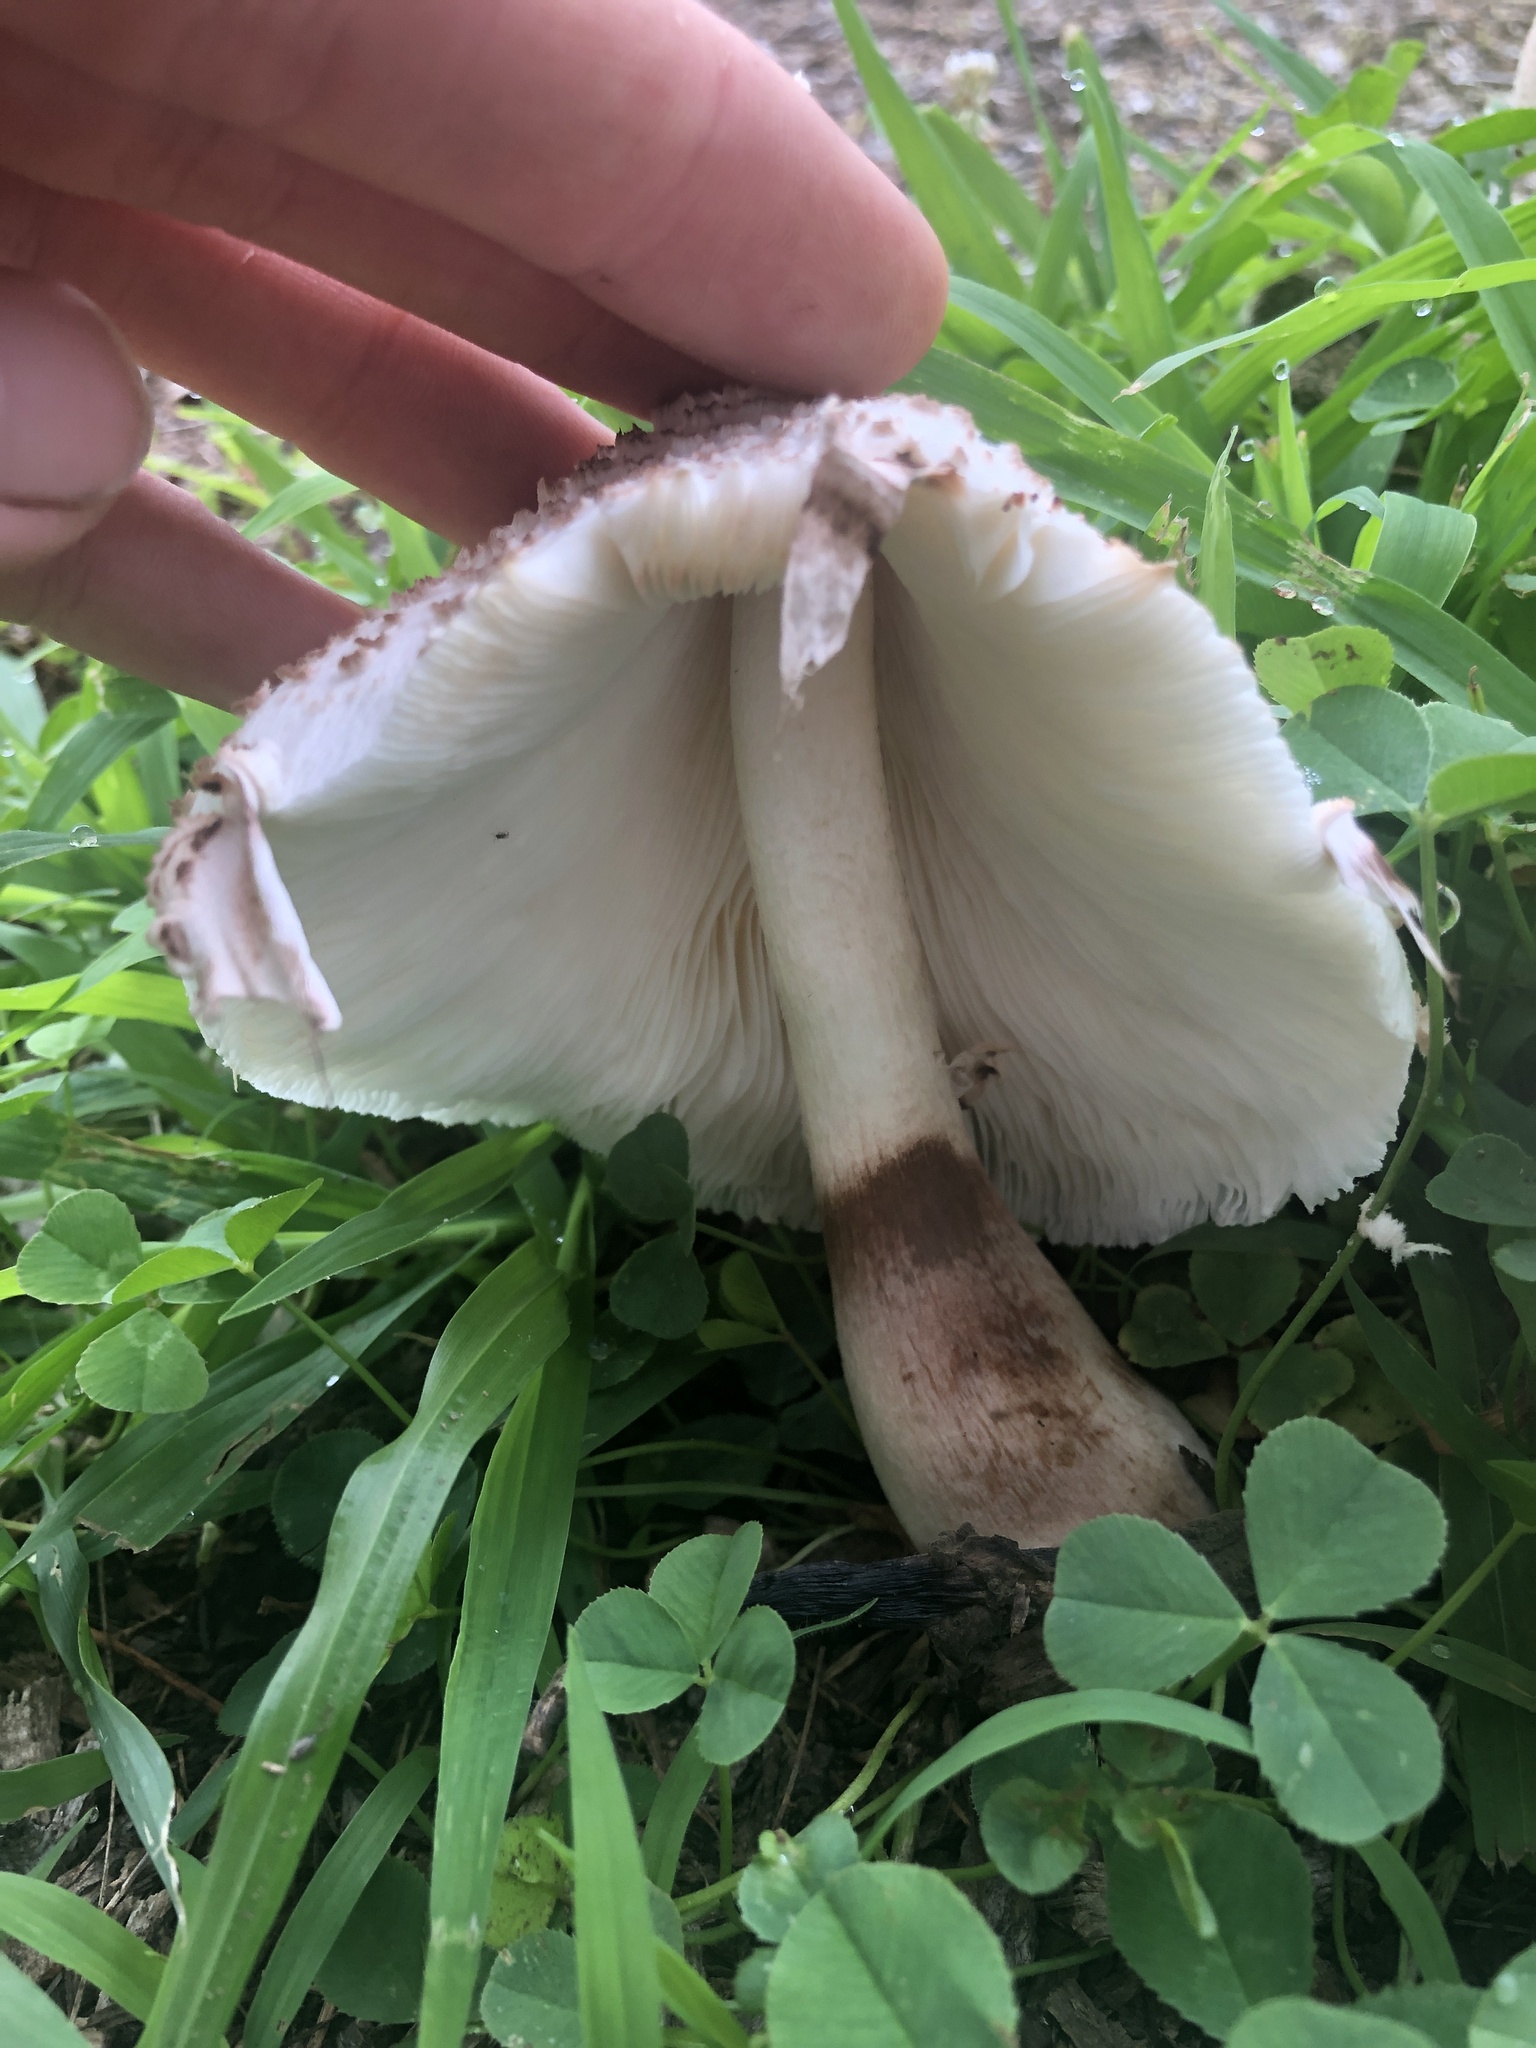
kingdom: Fungi
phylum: Basidiomycota
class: Agaricomycetes
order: Agaricales
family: Agaricaceae
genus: Leucoagaricus
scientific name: Leucoagaricus americanus
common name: Reddening lepiota
